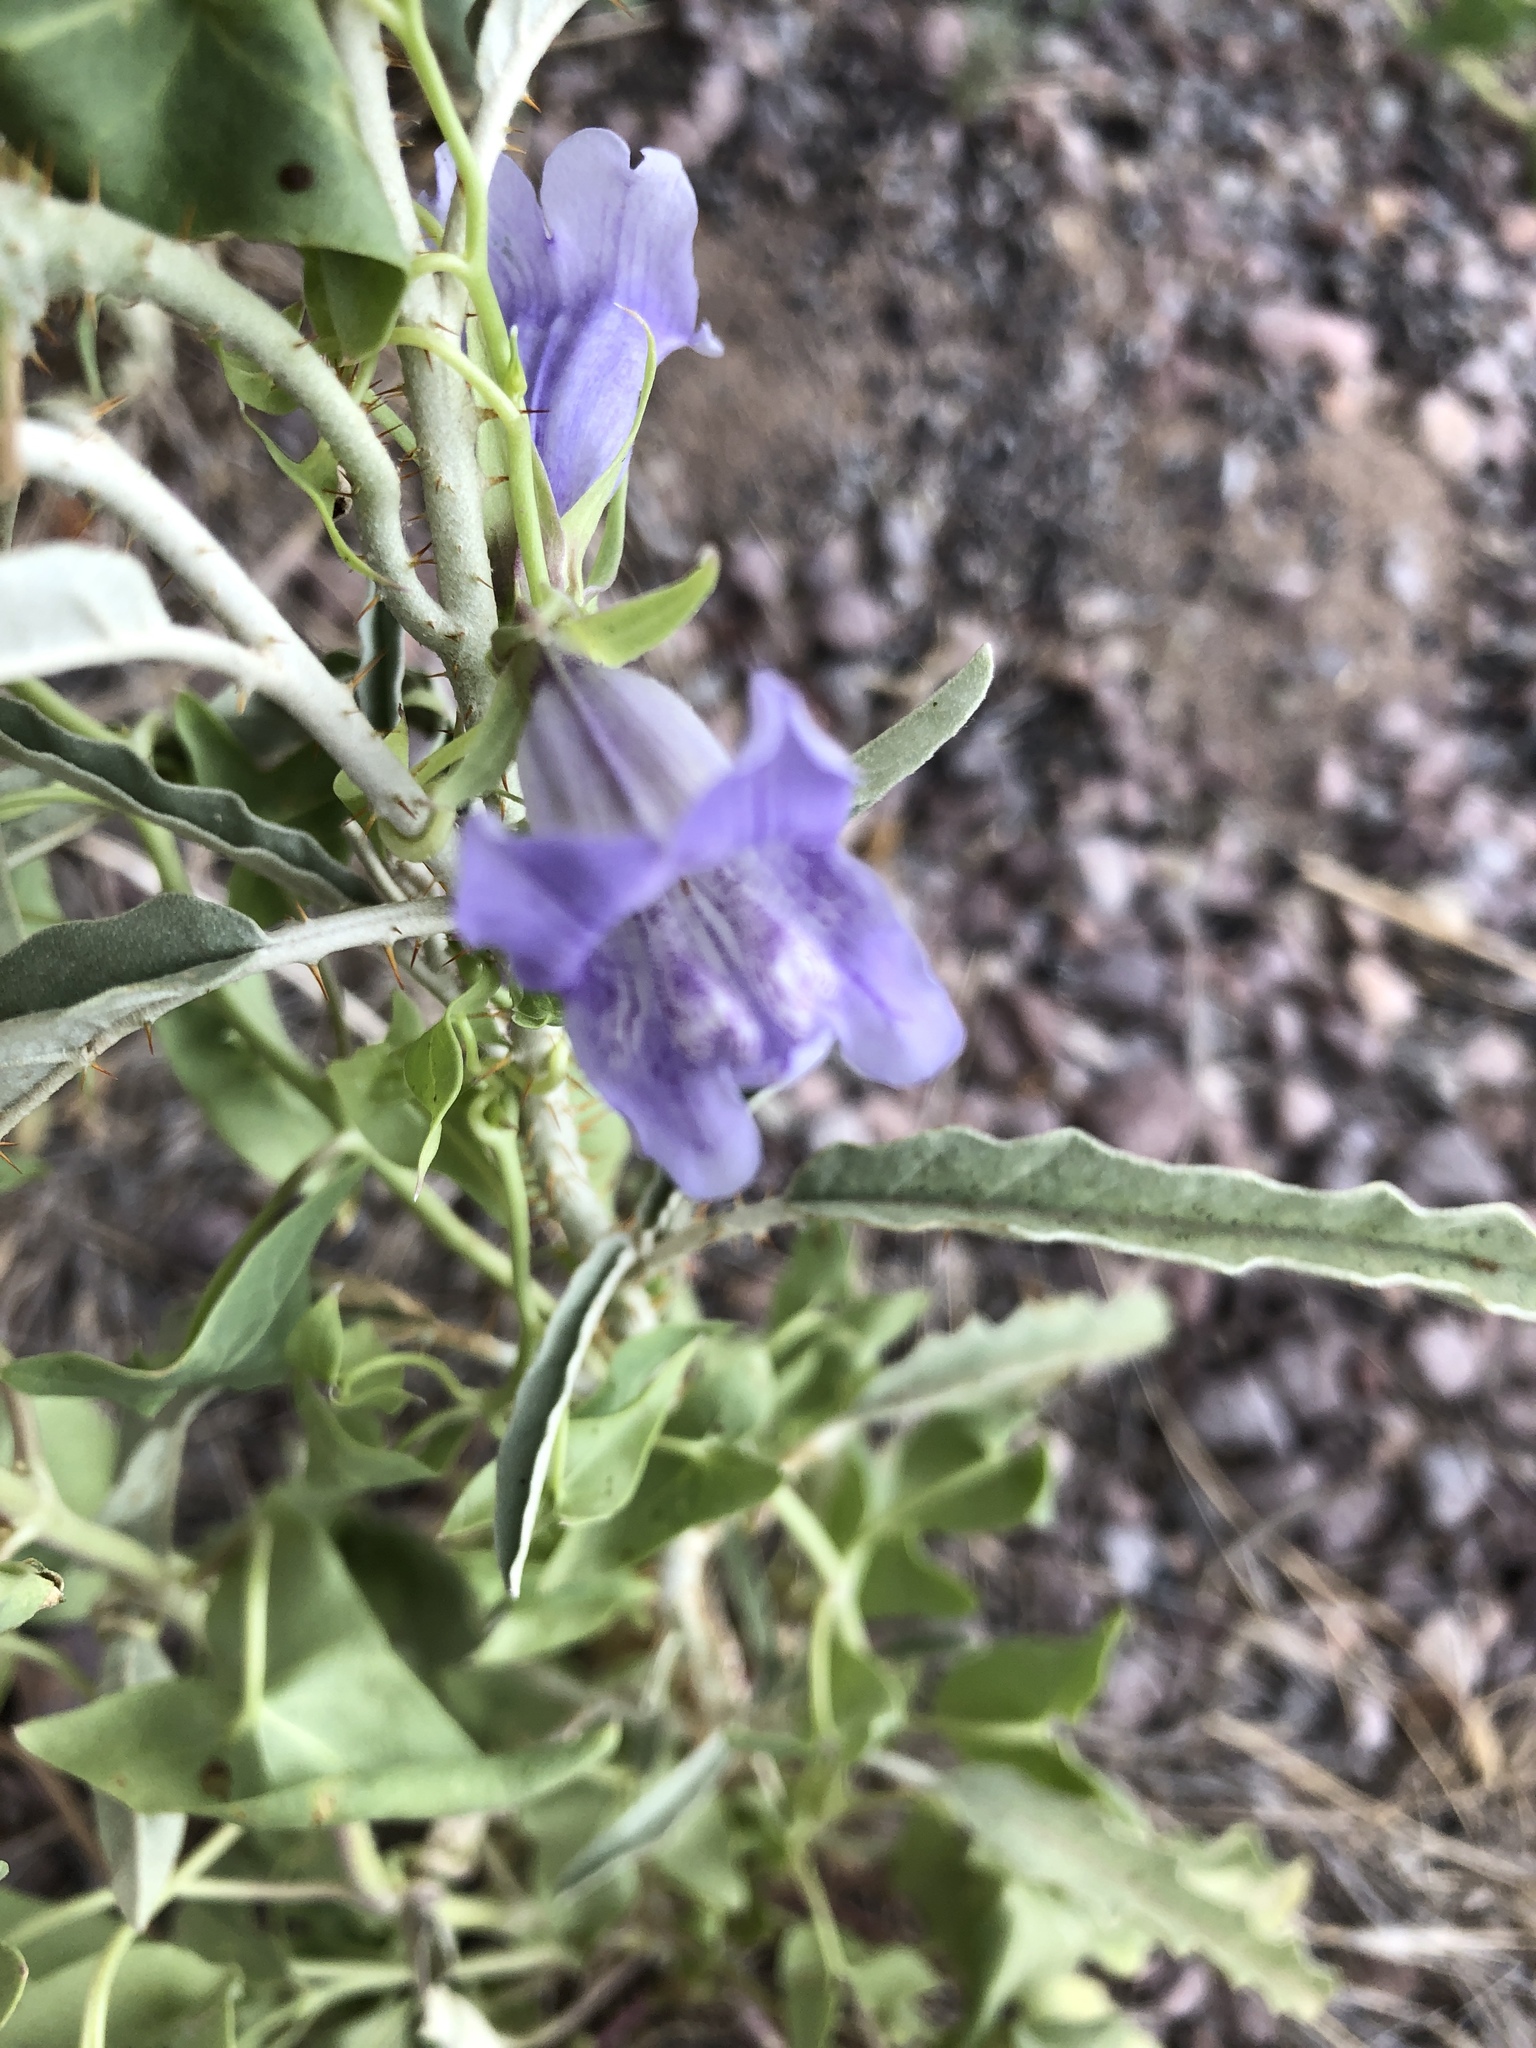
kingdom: Plantae
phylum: Tracheophyta
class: Magnoliopsida
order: Lamiales
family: Plantaginaceae
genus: Epixiphium
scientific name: Epixiphium wislizeni
